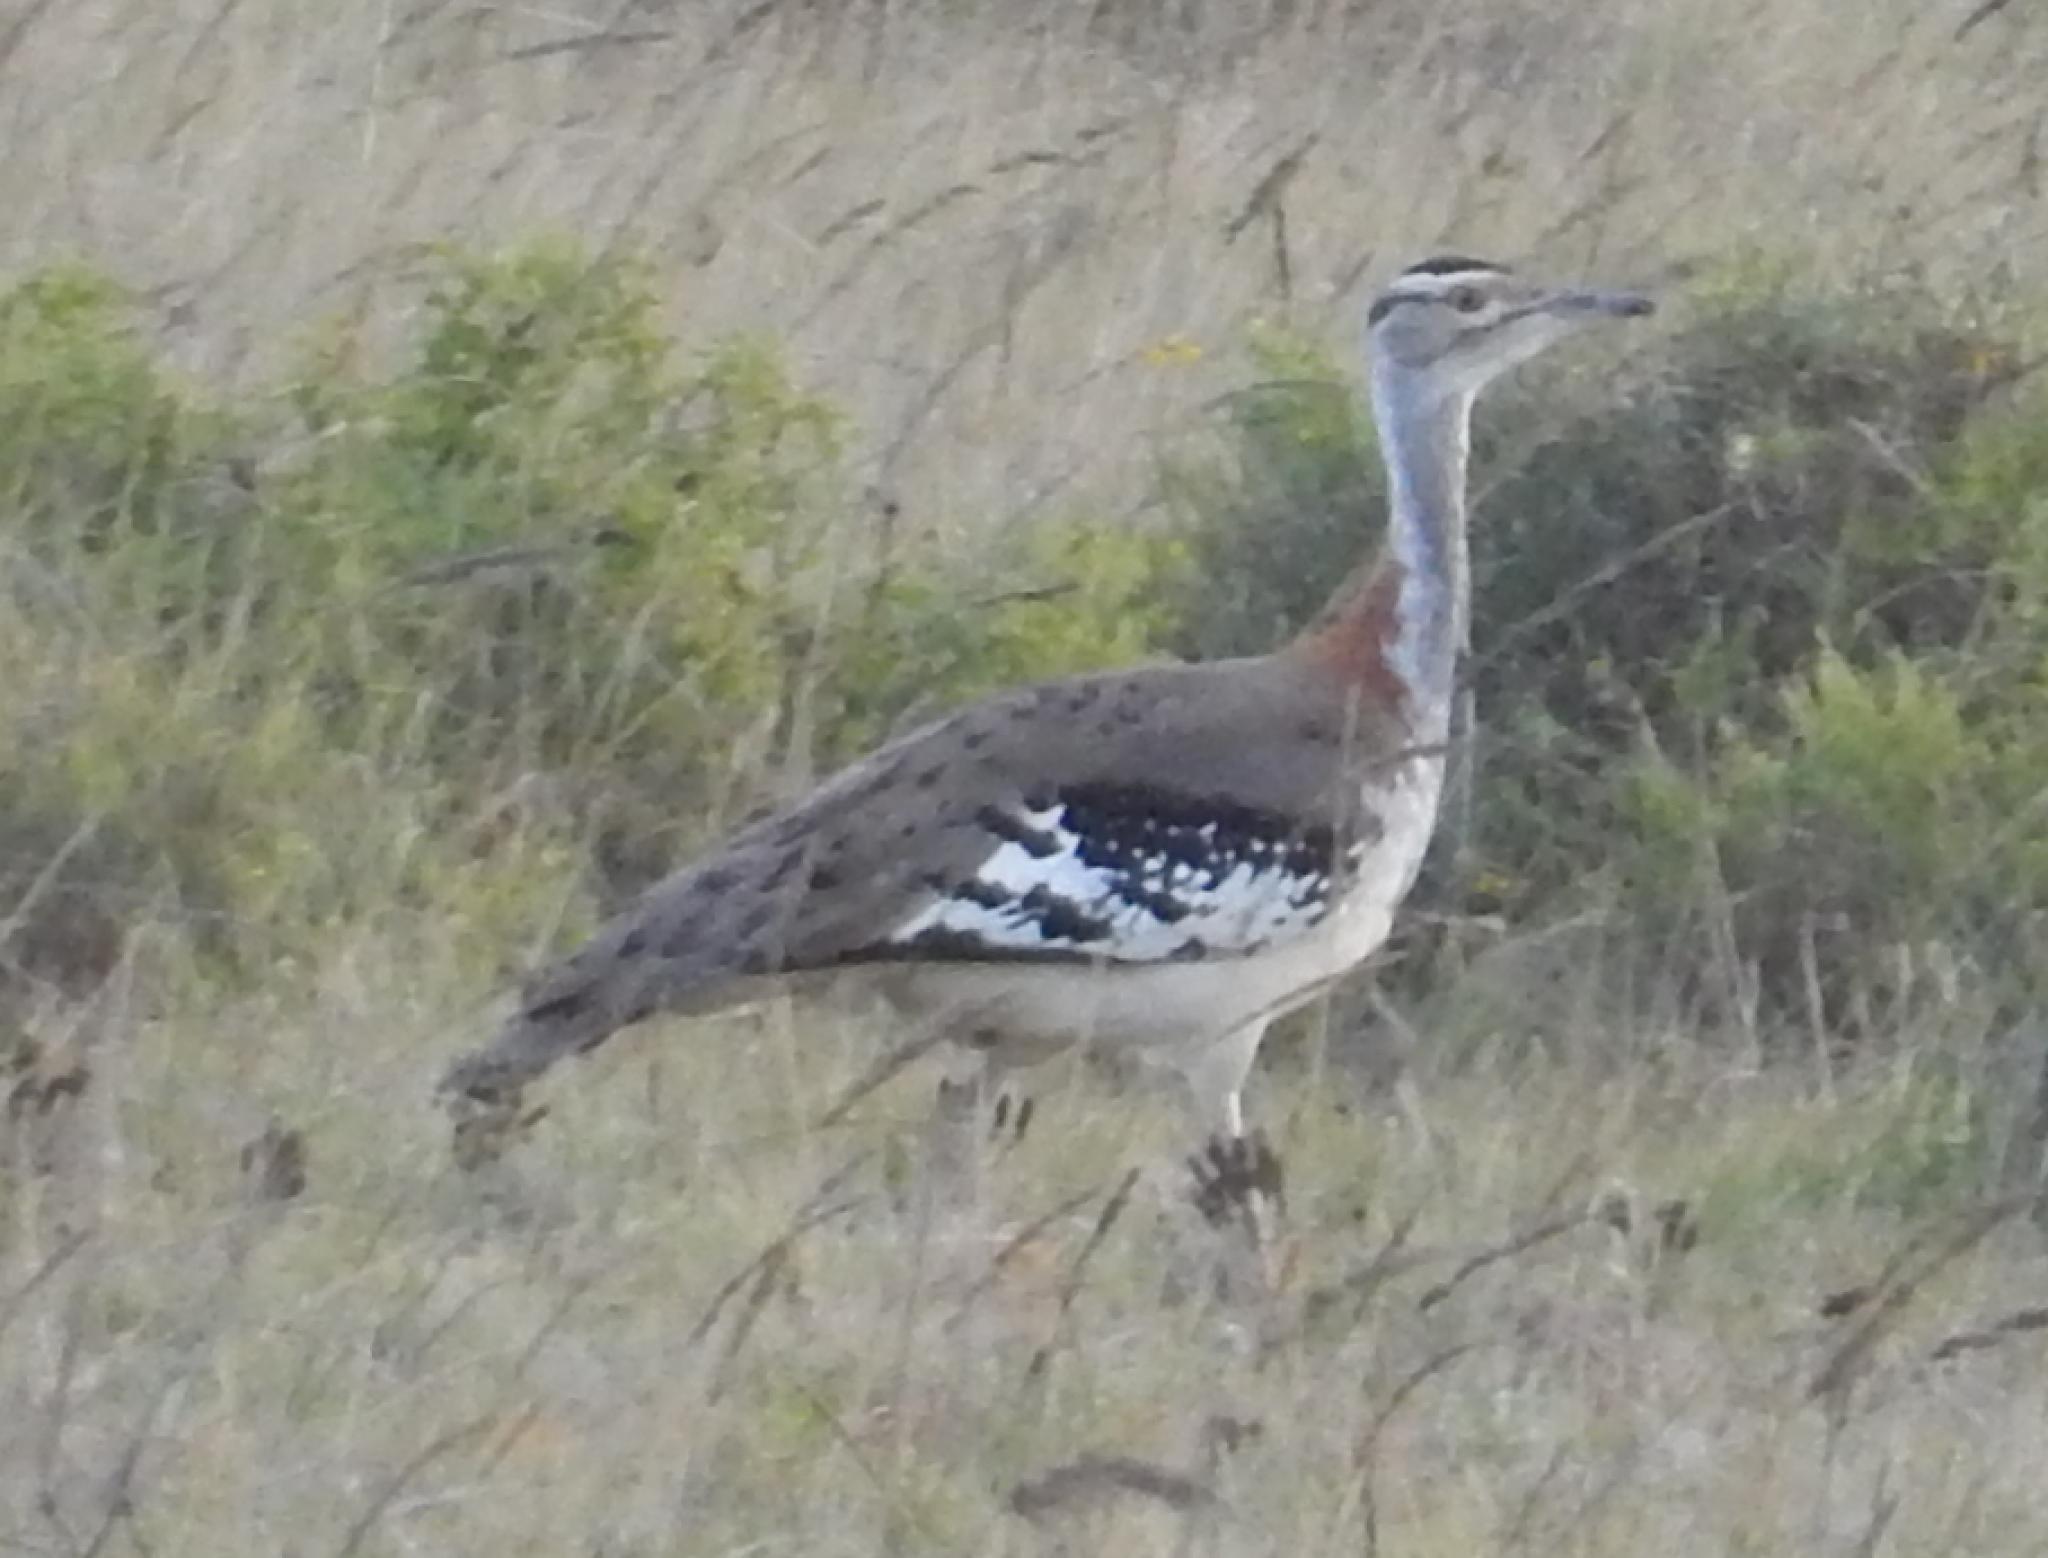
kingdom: Animalia
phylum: Chordata
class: Aves
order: Otidiformes
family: Otididae
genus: Neotis
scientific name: Neotis denhami
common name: Denham's bustard
